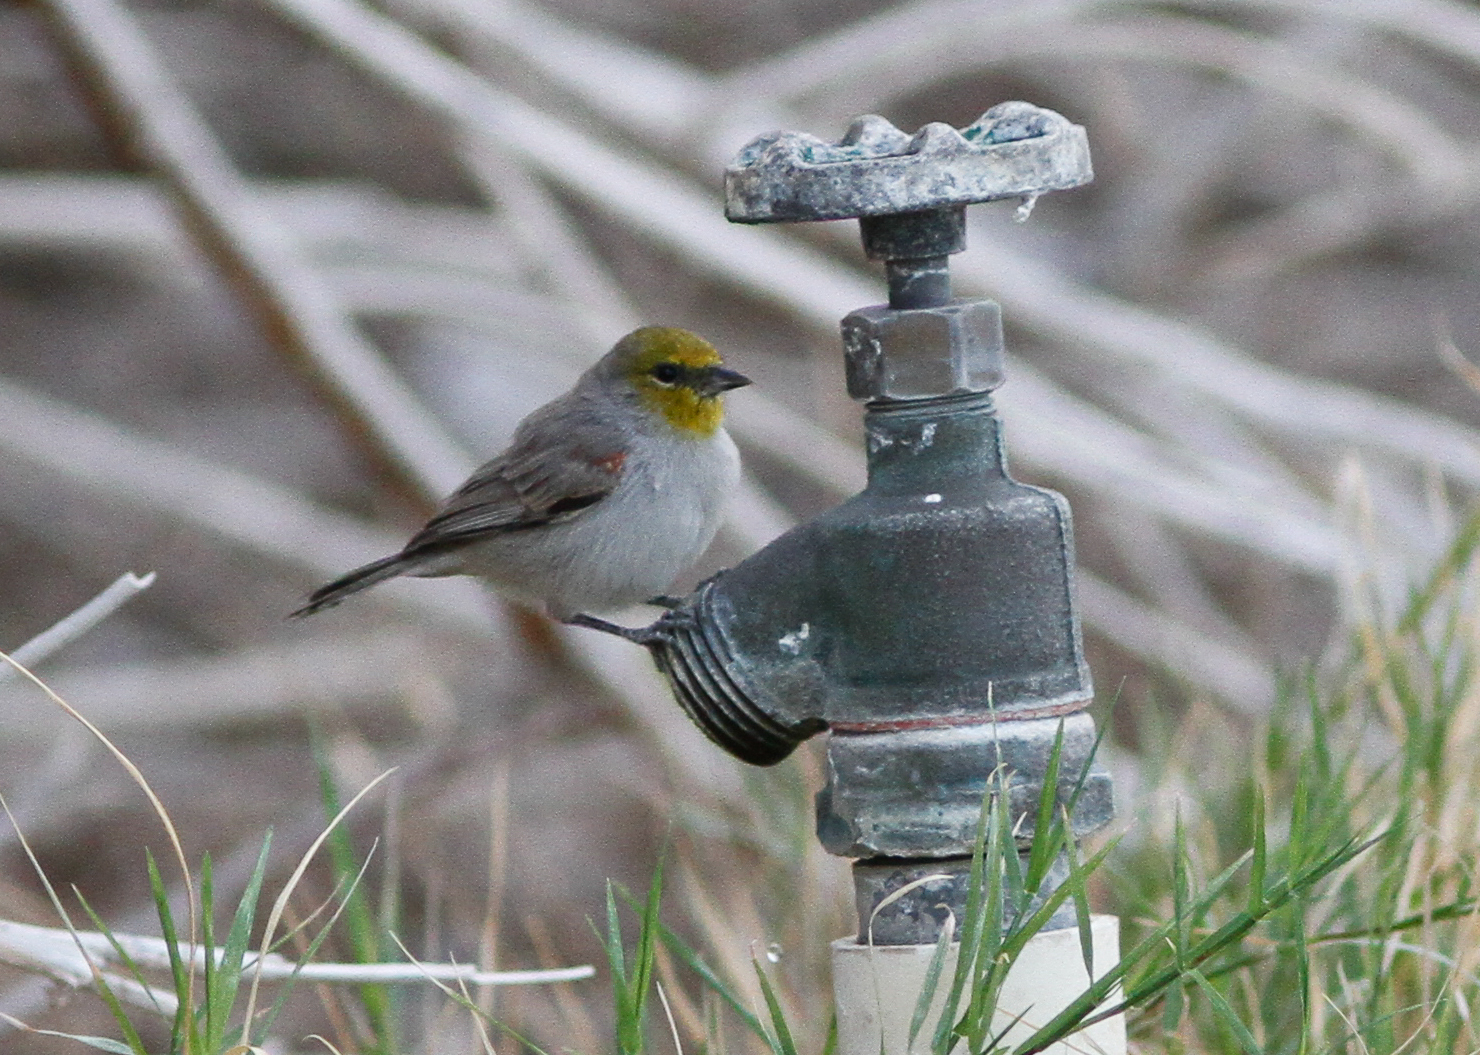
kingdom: Animalia
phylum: Chordata
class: Aves
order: Passeriformes
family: Remizidae
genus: Auriparus
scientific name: Auriparus flaviceps
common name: Verdin
